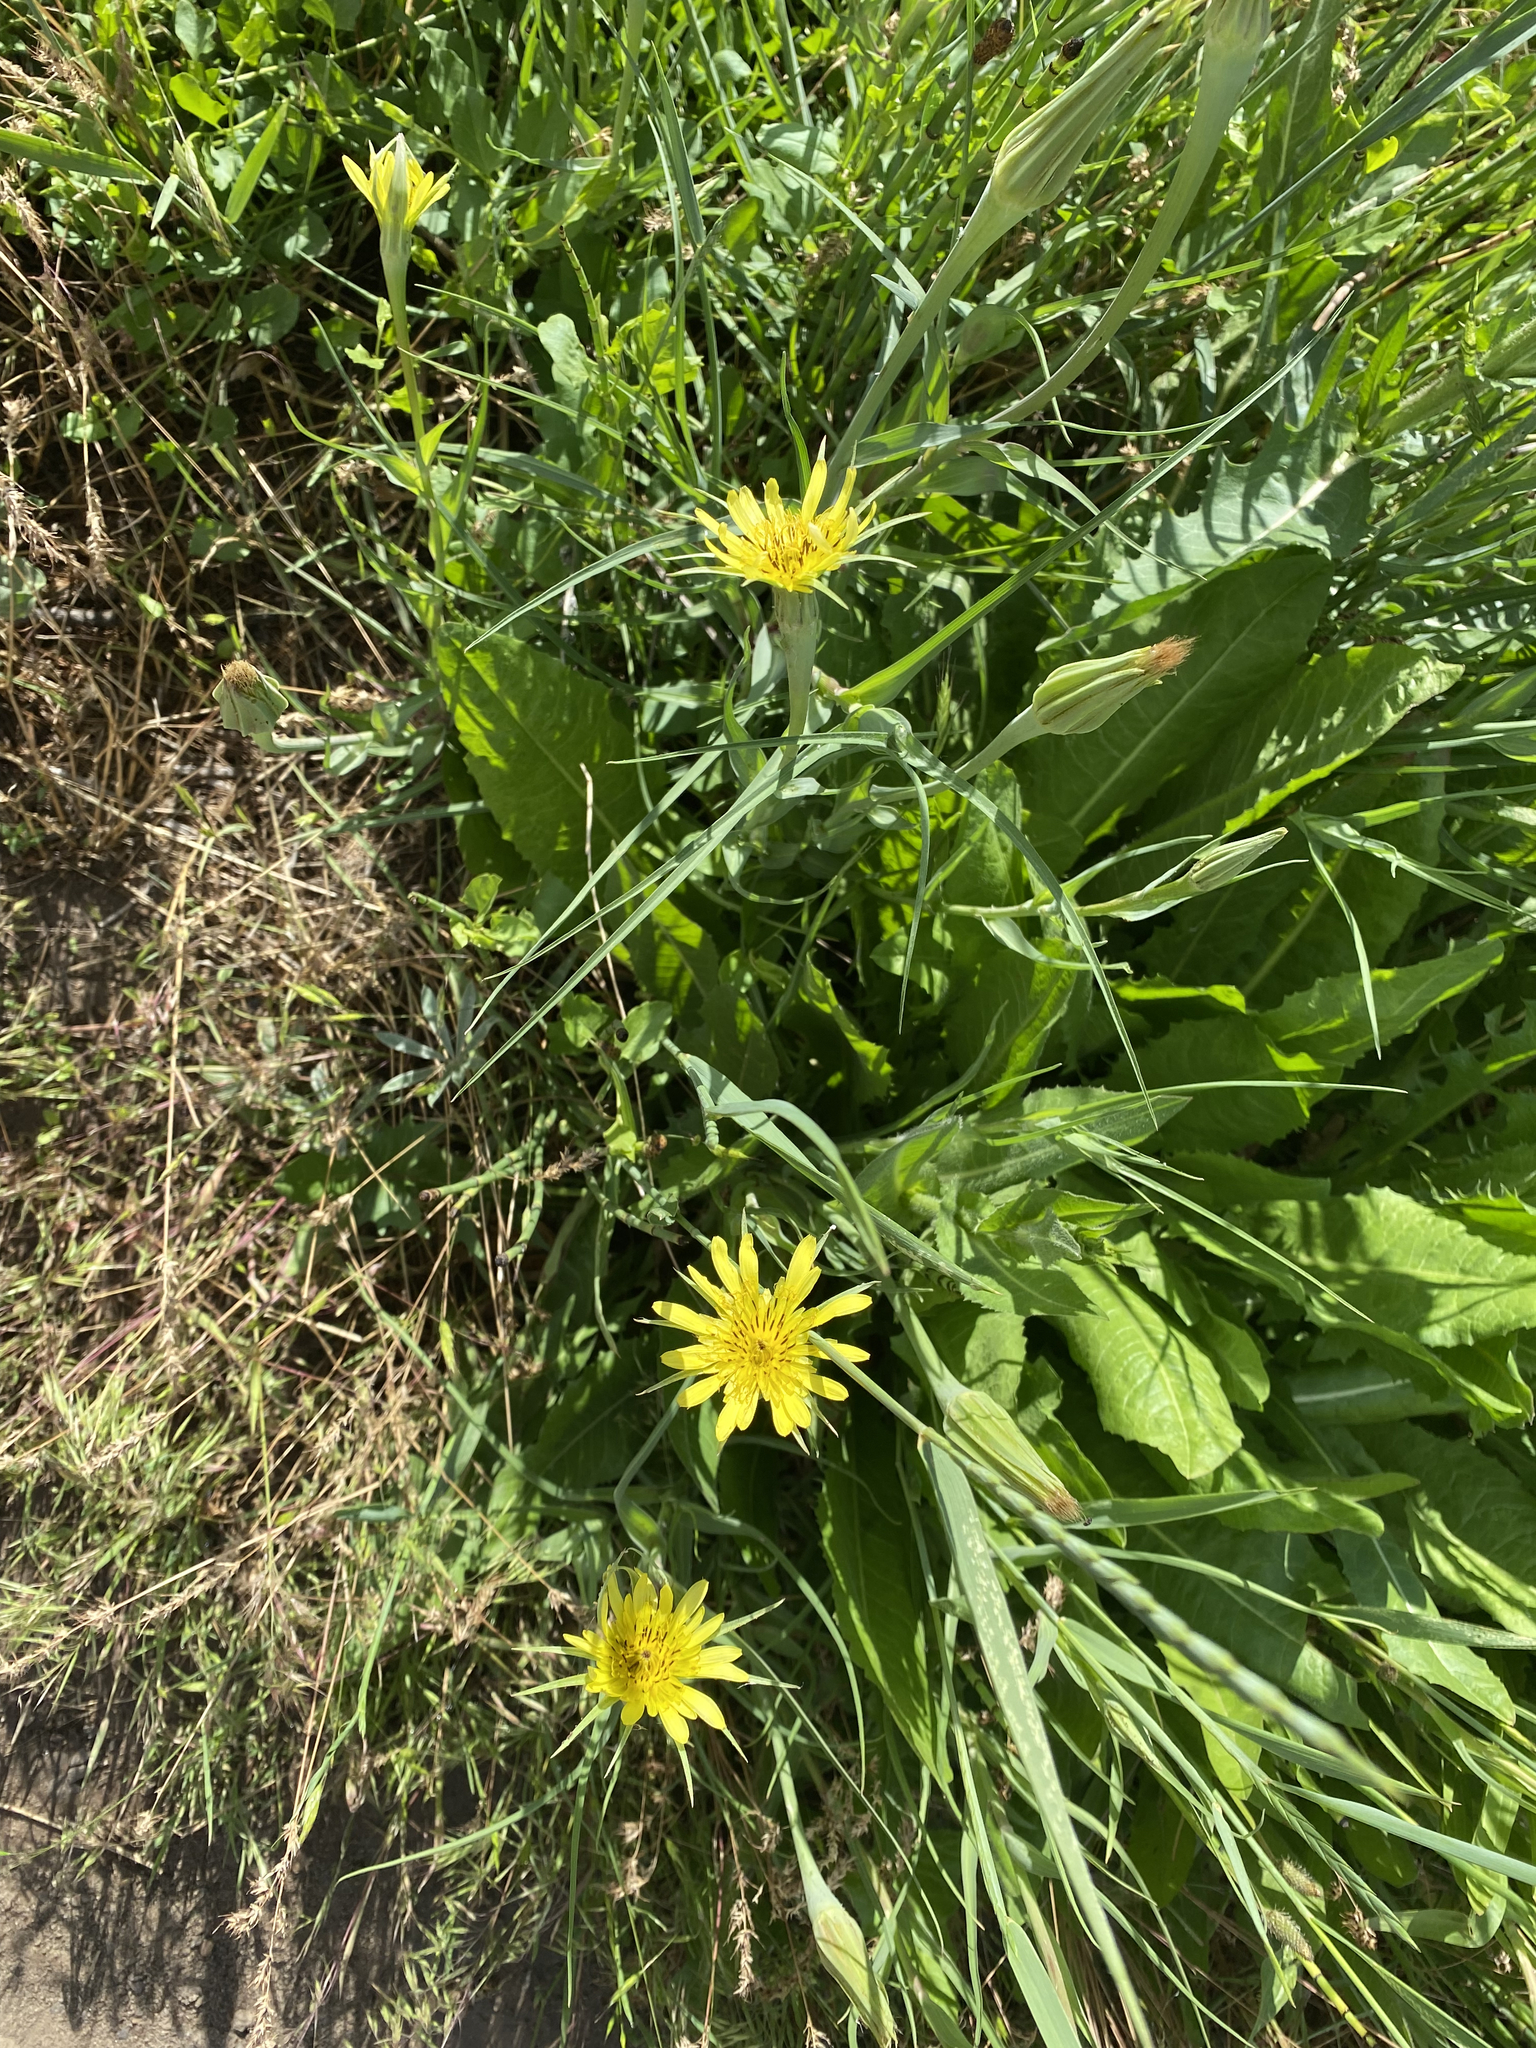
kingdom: Plantae
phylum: Tracheophyta
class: Magnoliopsida
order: Asterales
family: Asteraceae
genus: Tragopogon
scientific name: Tragopogon dubius
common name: Yellow salsify
